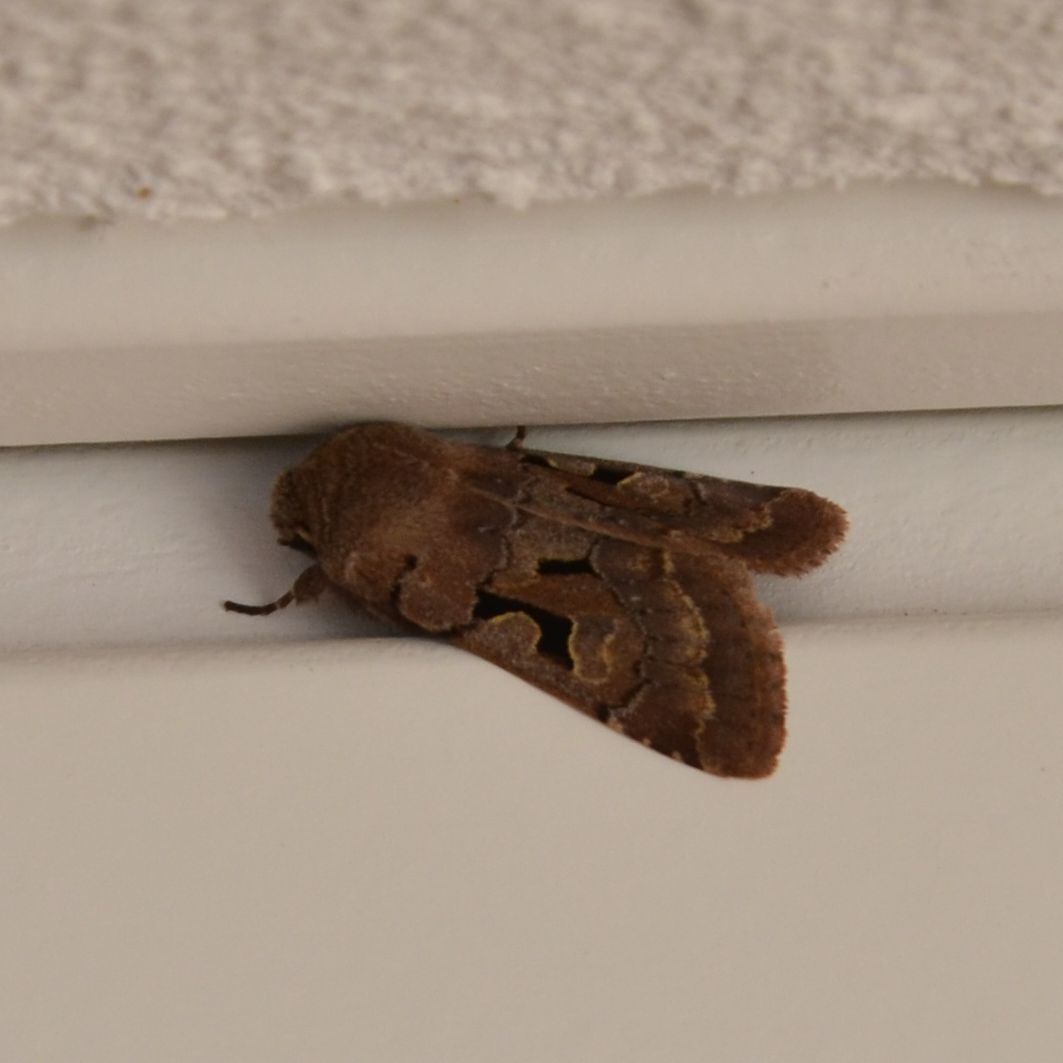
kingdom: Animalia
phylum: Arthropoda
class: Insecta
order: Lepidoptera
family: Noctuidae
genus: Orthosia
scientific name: Orthosia gothica
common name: Hebrew character
